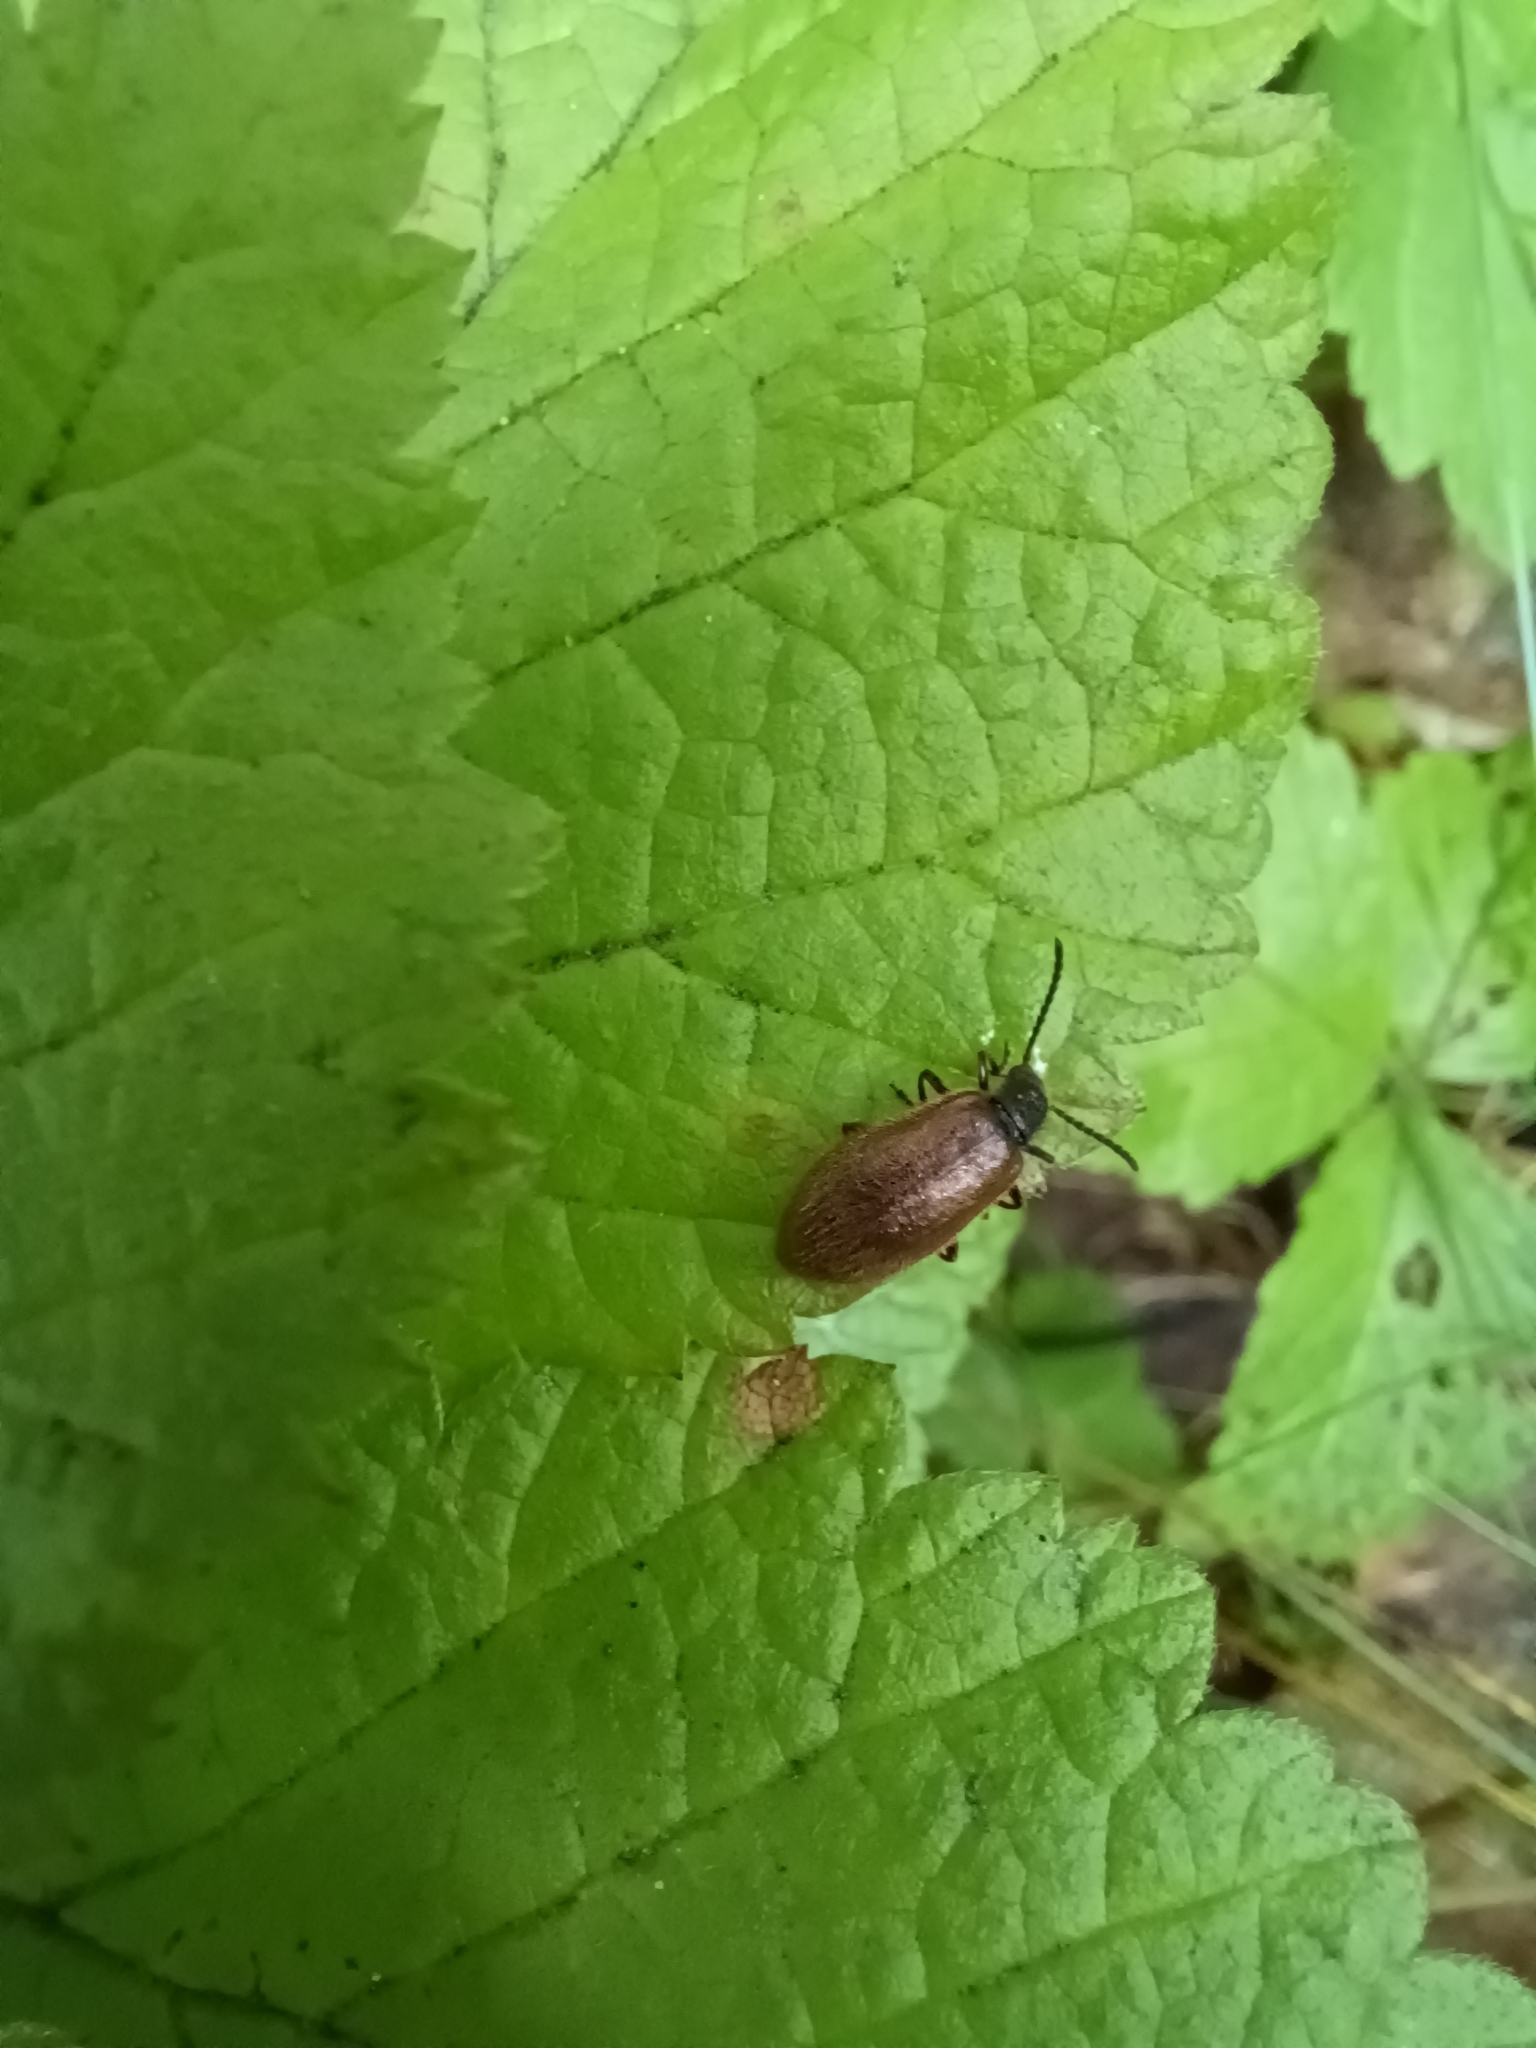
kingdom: Animalia
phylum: Arthropoda
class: Insecta
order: Coleoptera
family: Tenebrionidae
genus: Lagria
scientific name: Lagria hirta
